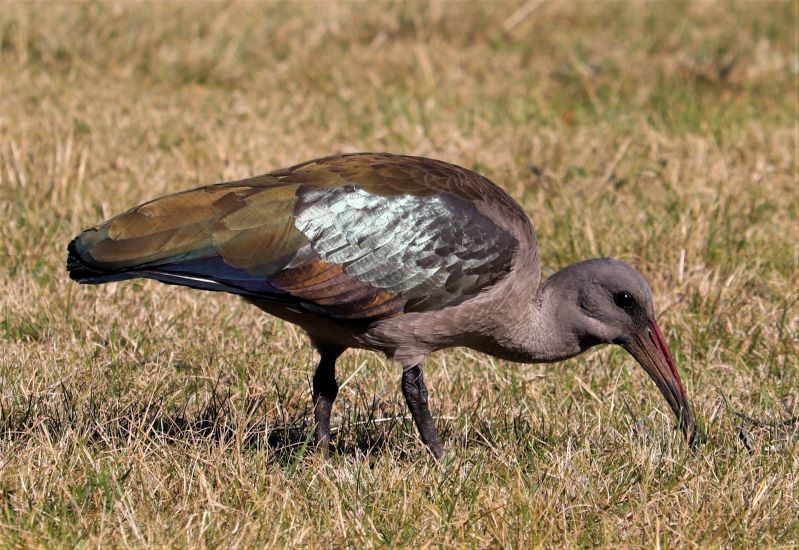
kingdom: Animalia
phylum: Chordata
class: Aves
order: Pelecaniformes
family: Threskiornithidae
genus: Bostrychia
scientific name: Bostrychia hagedash
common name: Hadada ibis
